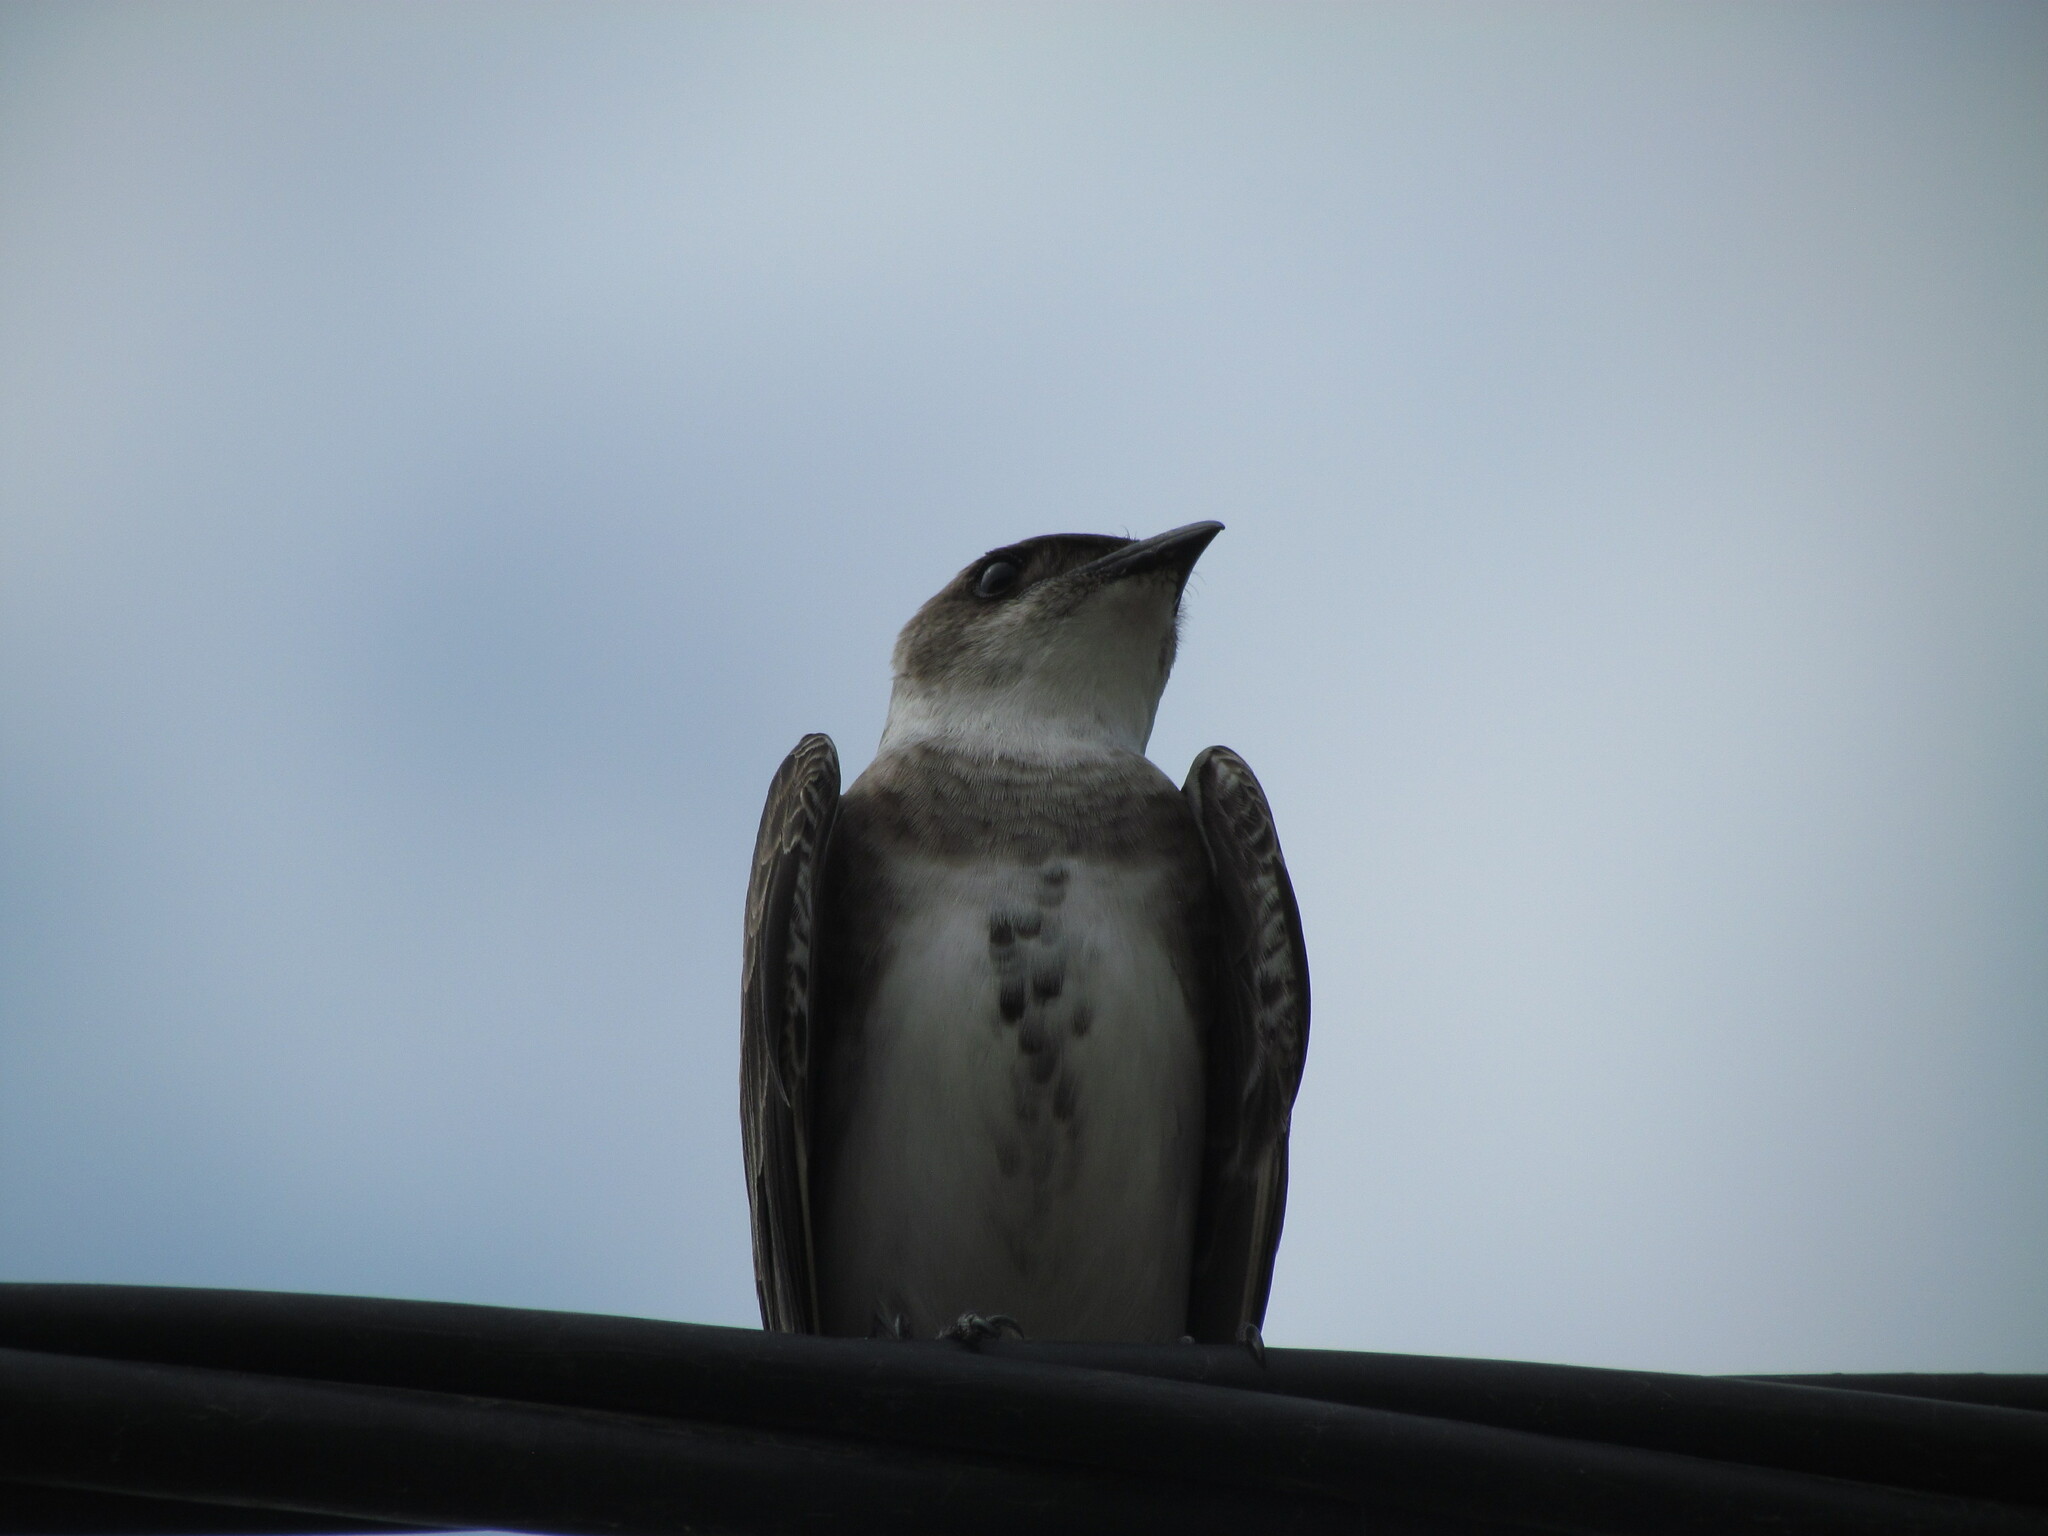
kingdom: Animalia
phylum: Chordata
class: Aves
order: Passeriformes
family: Hirundinidae
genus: Progne
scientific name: Progne tapera
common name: Brown-chested martin
